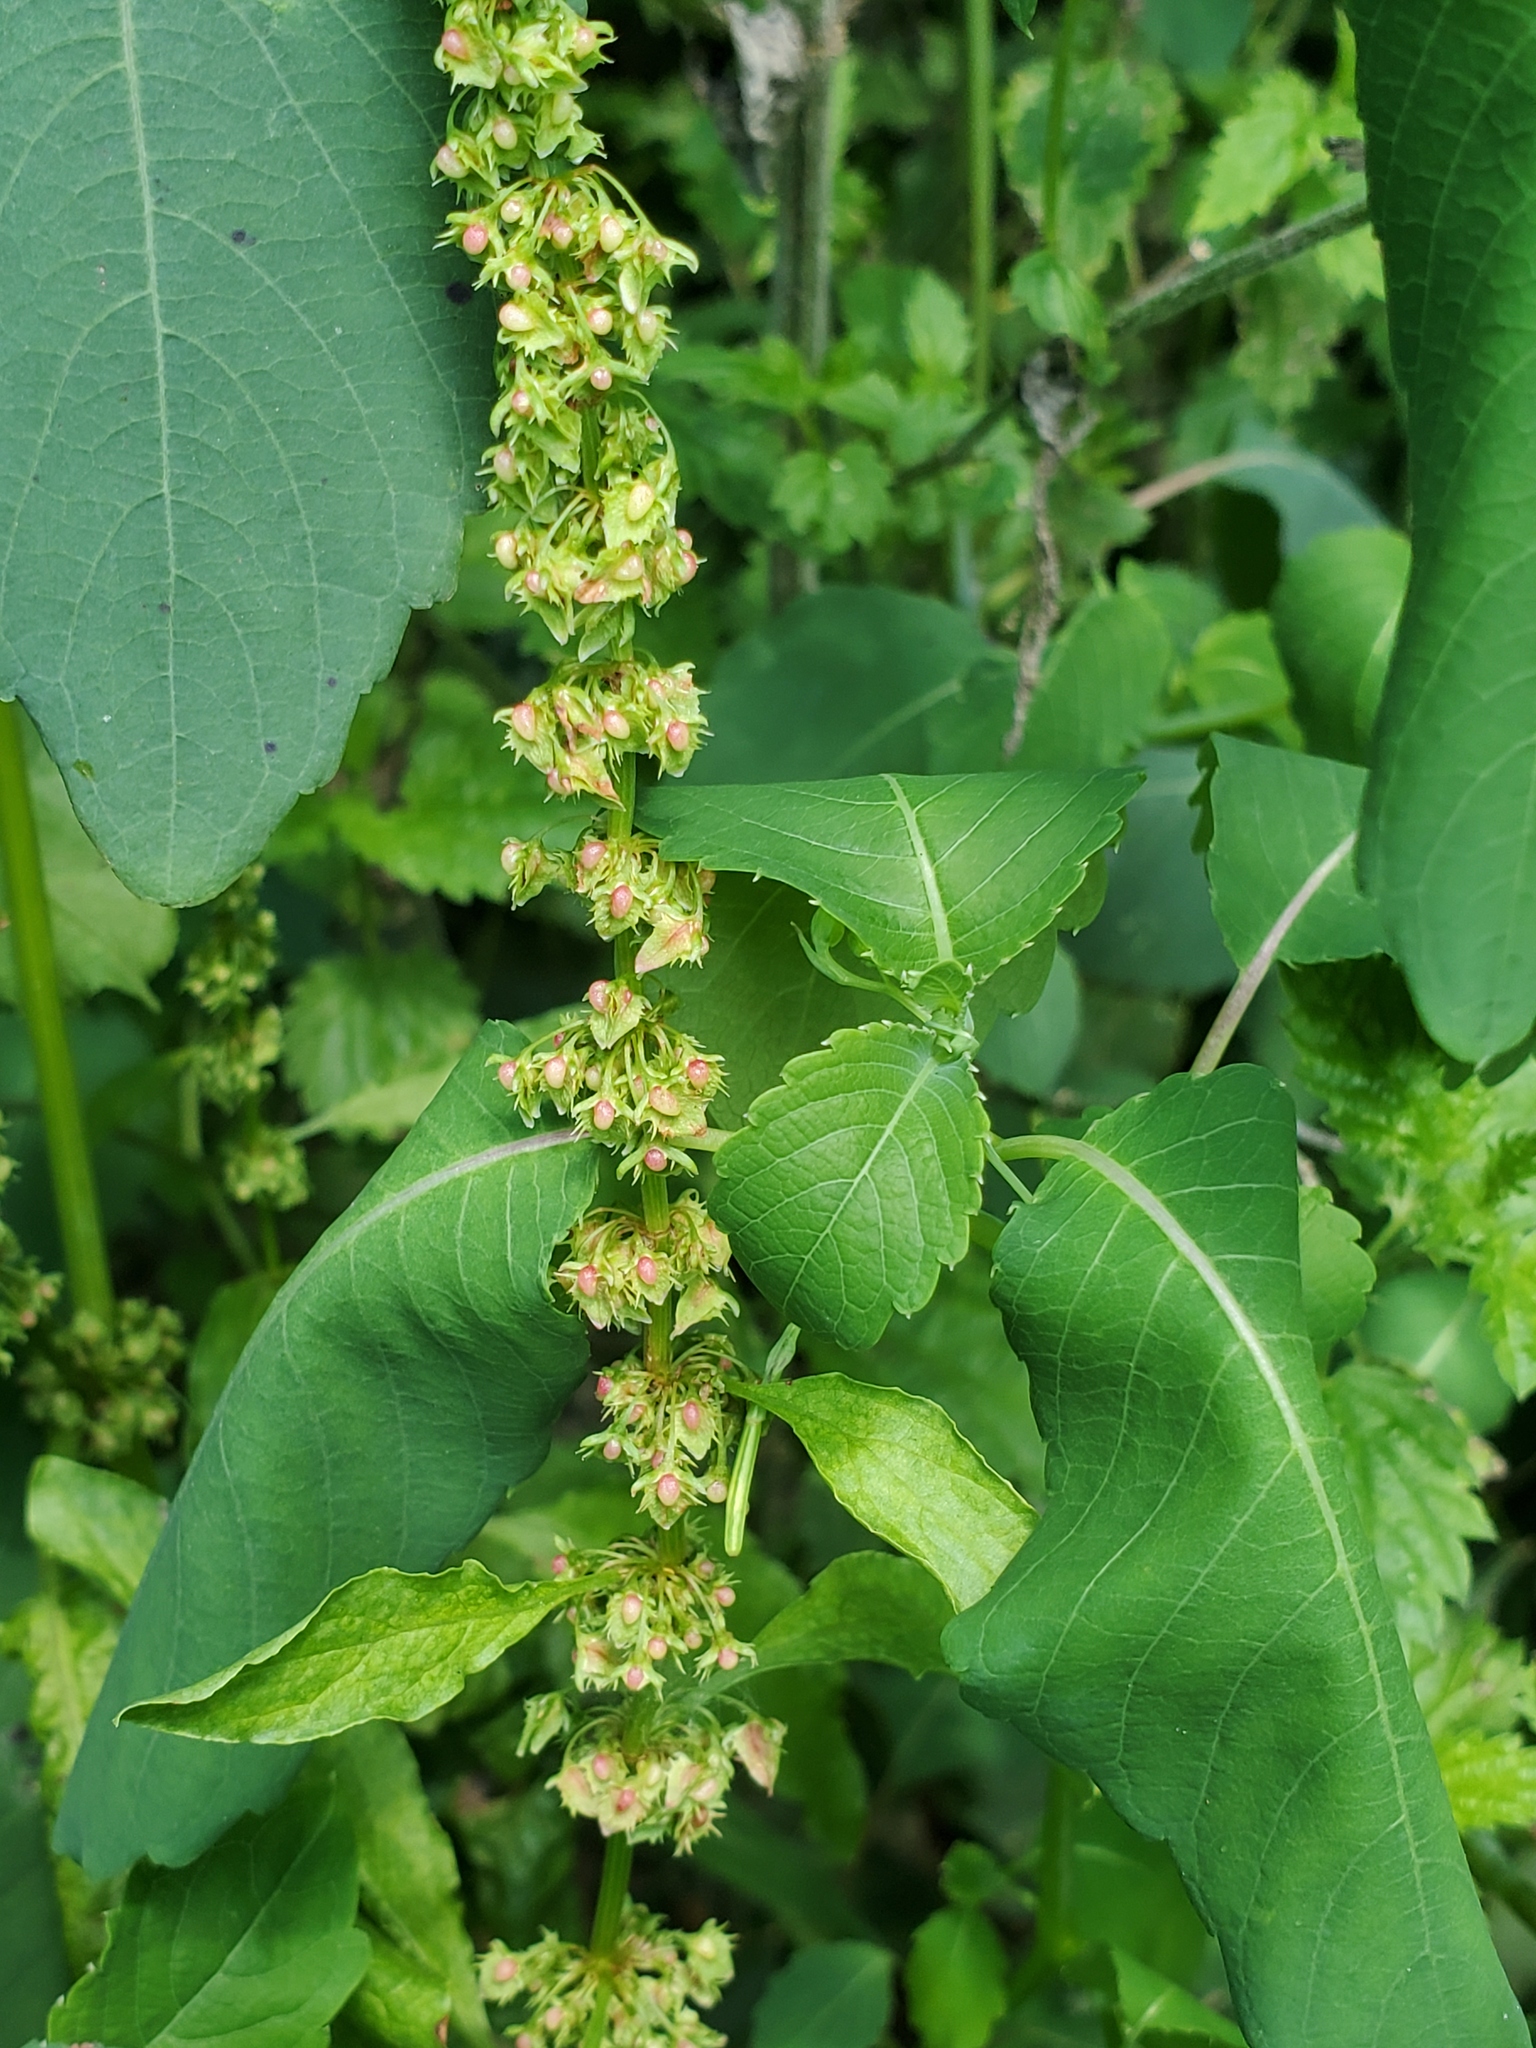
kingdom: Plantae
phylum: Tracheophyta
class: Magnoliopsida
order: Caryophyllales
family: Polygonaceae
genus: Rumex
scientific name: Rumex obtusifolius
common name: Bitter dock
